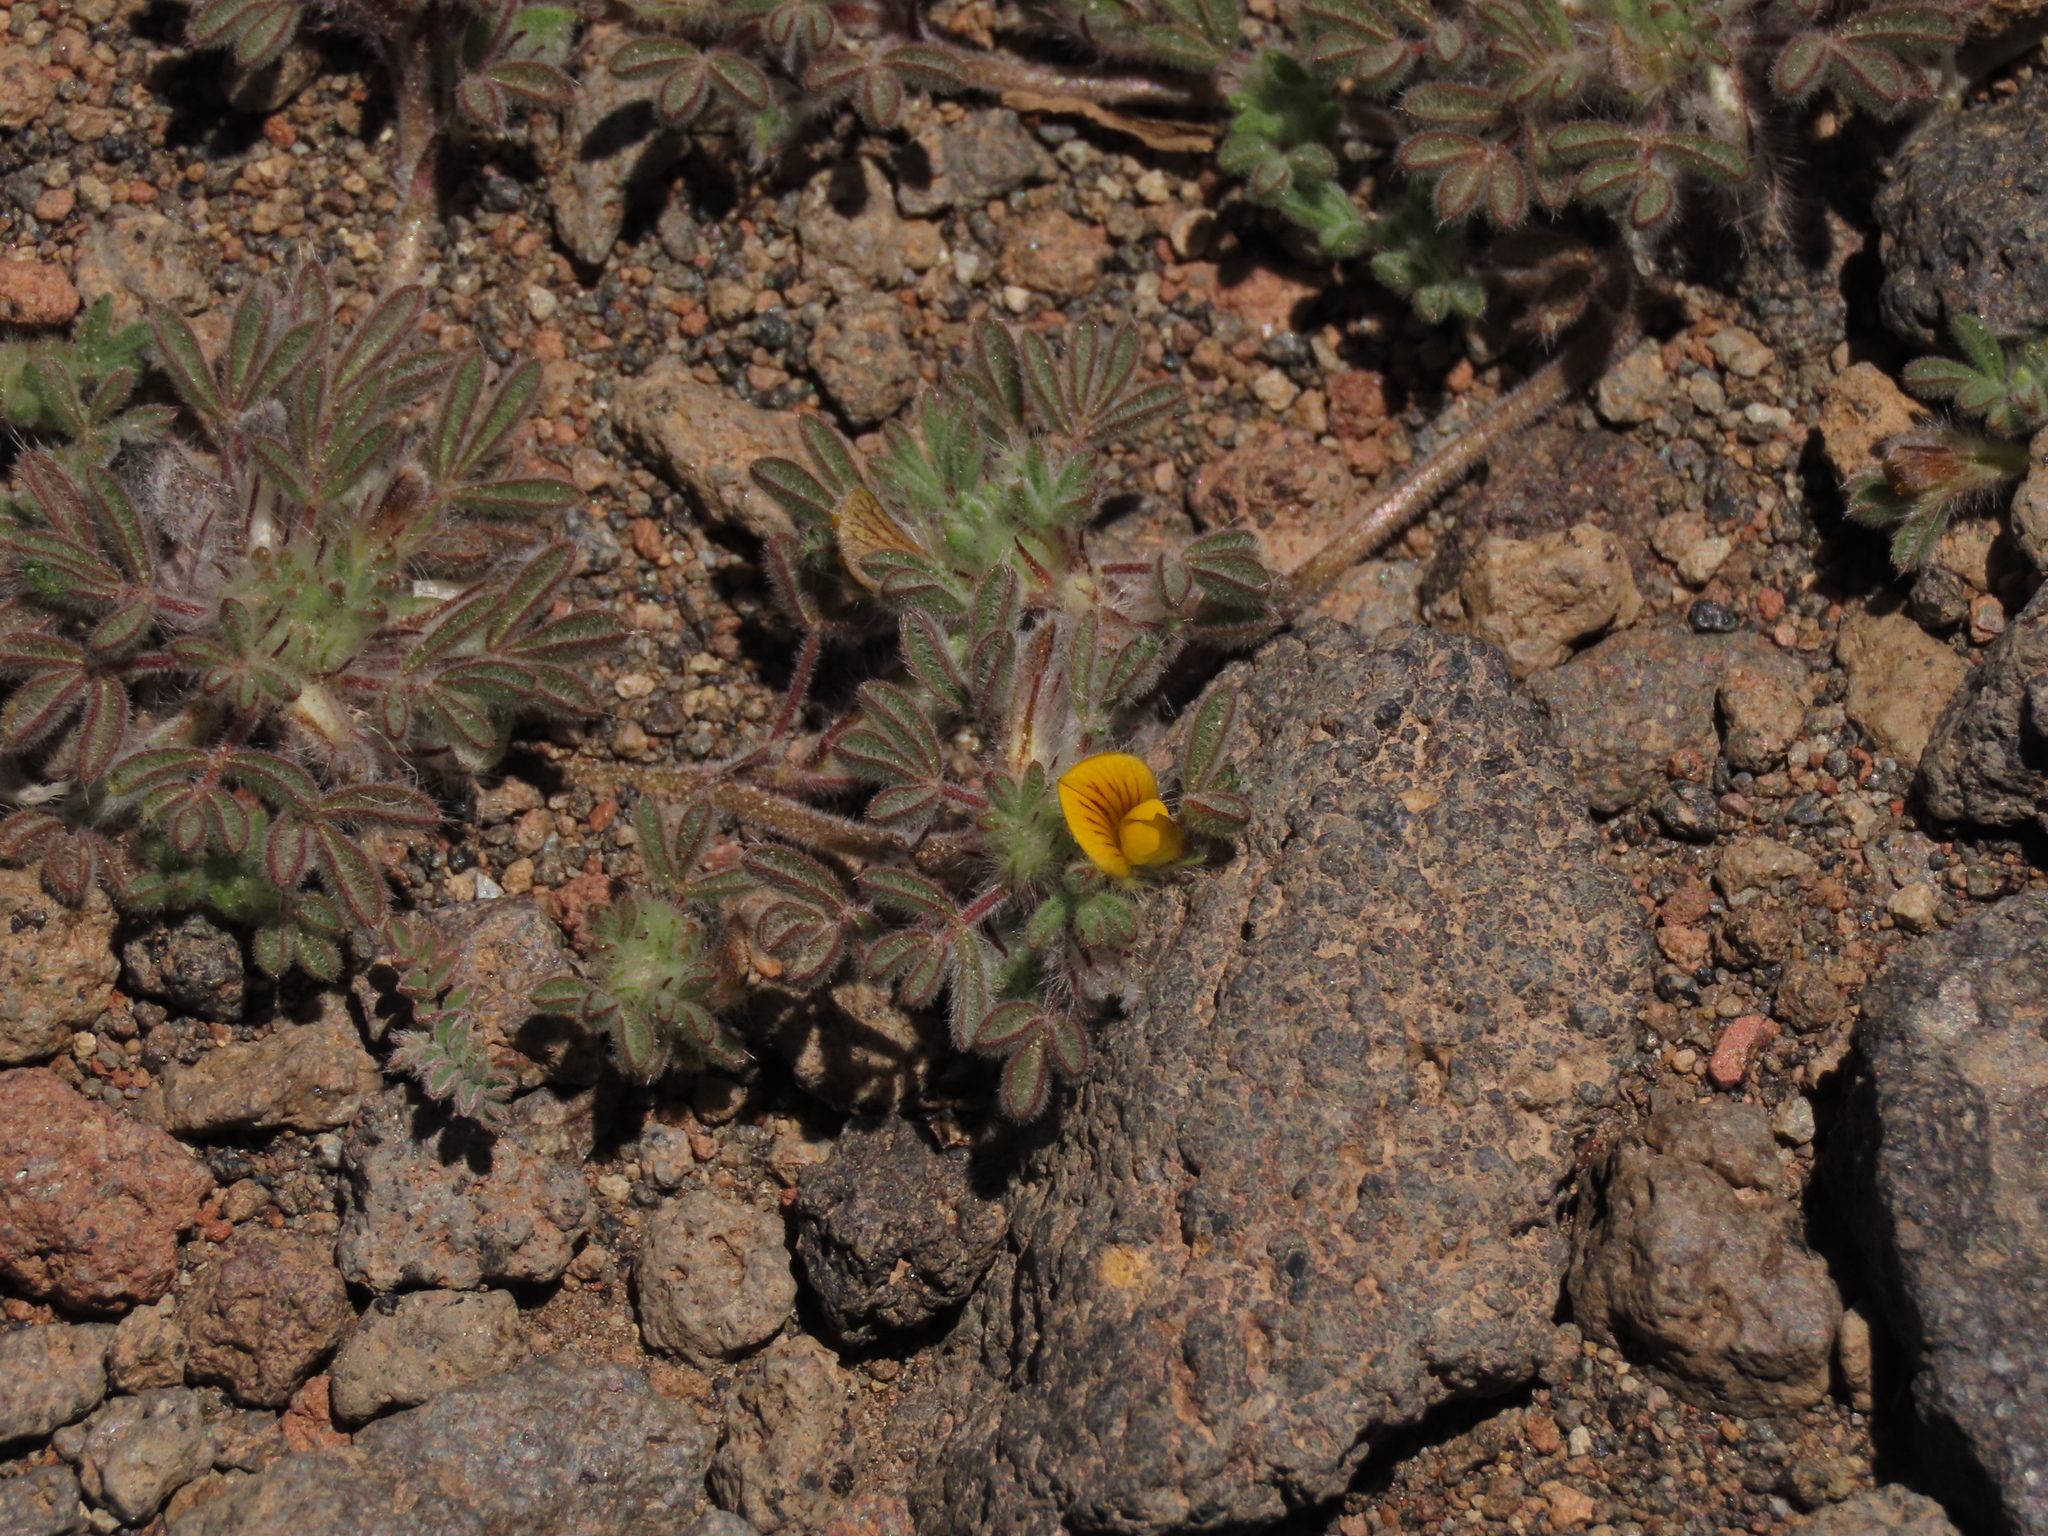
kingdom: Plantae
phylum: Tracheophyta
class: Magnoliopsida
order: Fabales
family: Fabaceae
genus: Adesmia
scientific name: Adesmia capitellata
